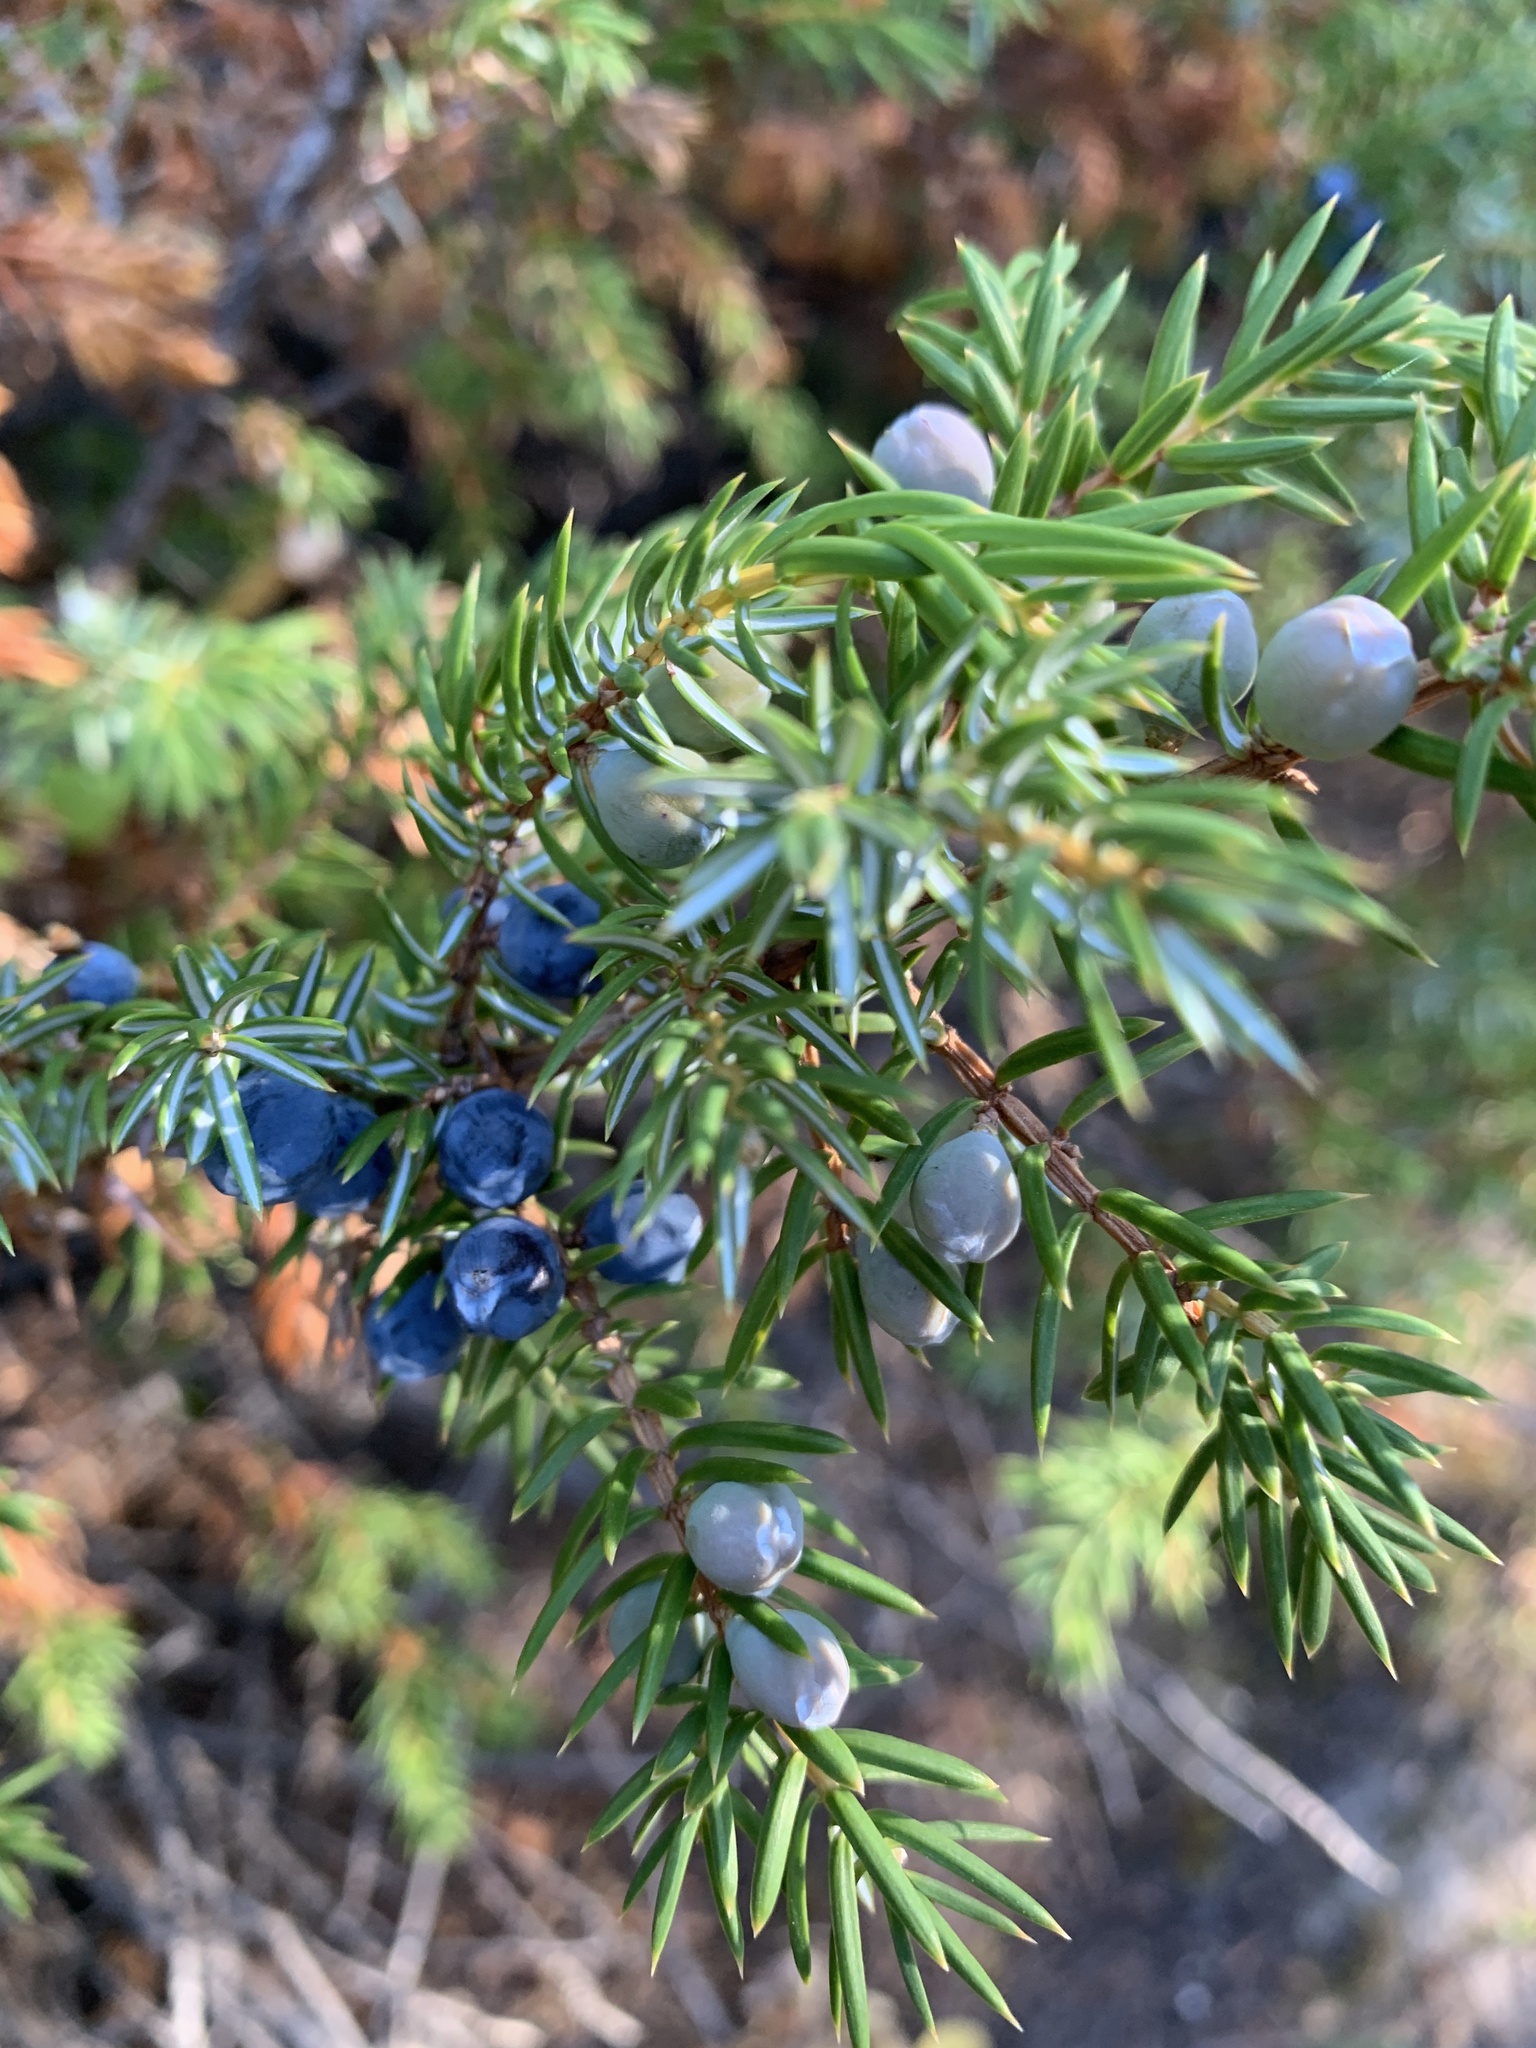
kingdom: Plantae
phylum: Tracheophyta
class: Pinopsida
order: Pinales
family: Cupressaceae
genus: Juniperus
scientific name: Juniperus communis
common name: Common juniper
